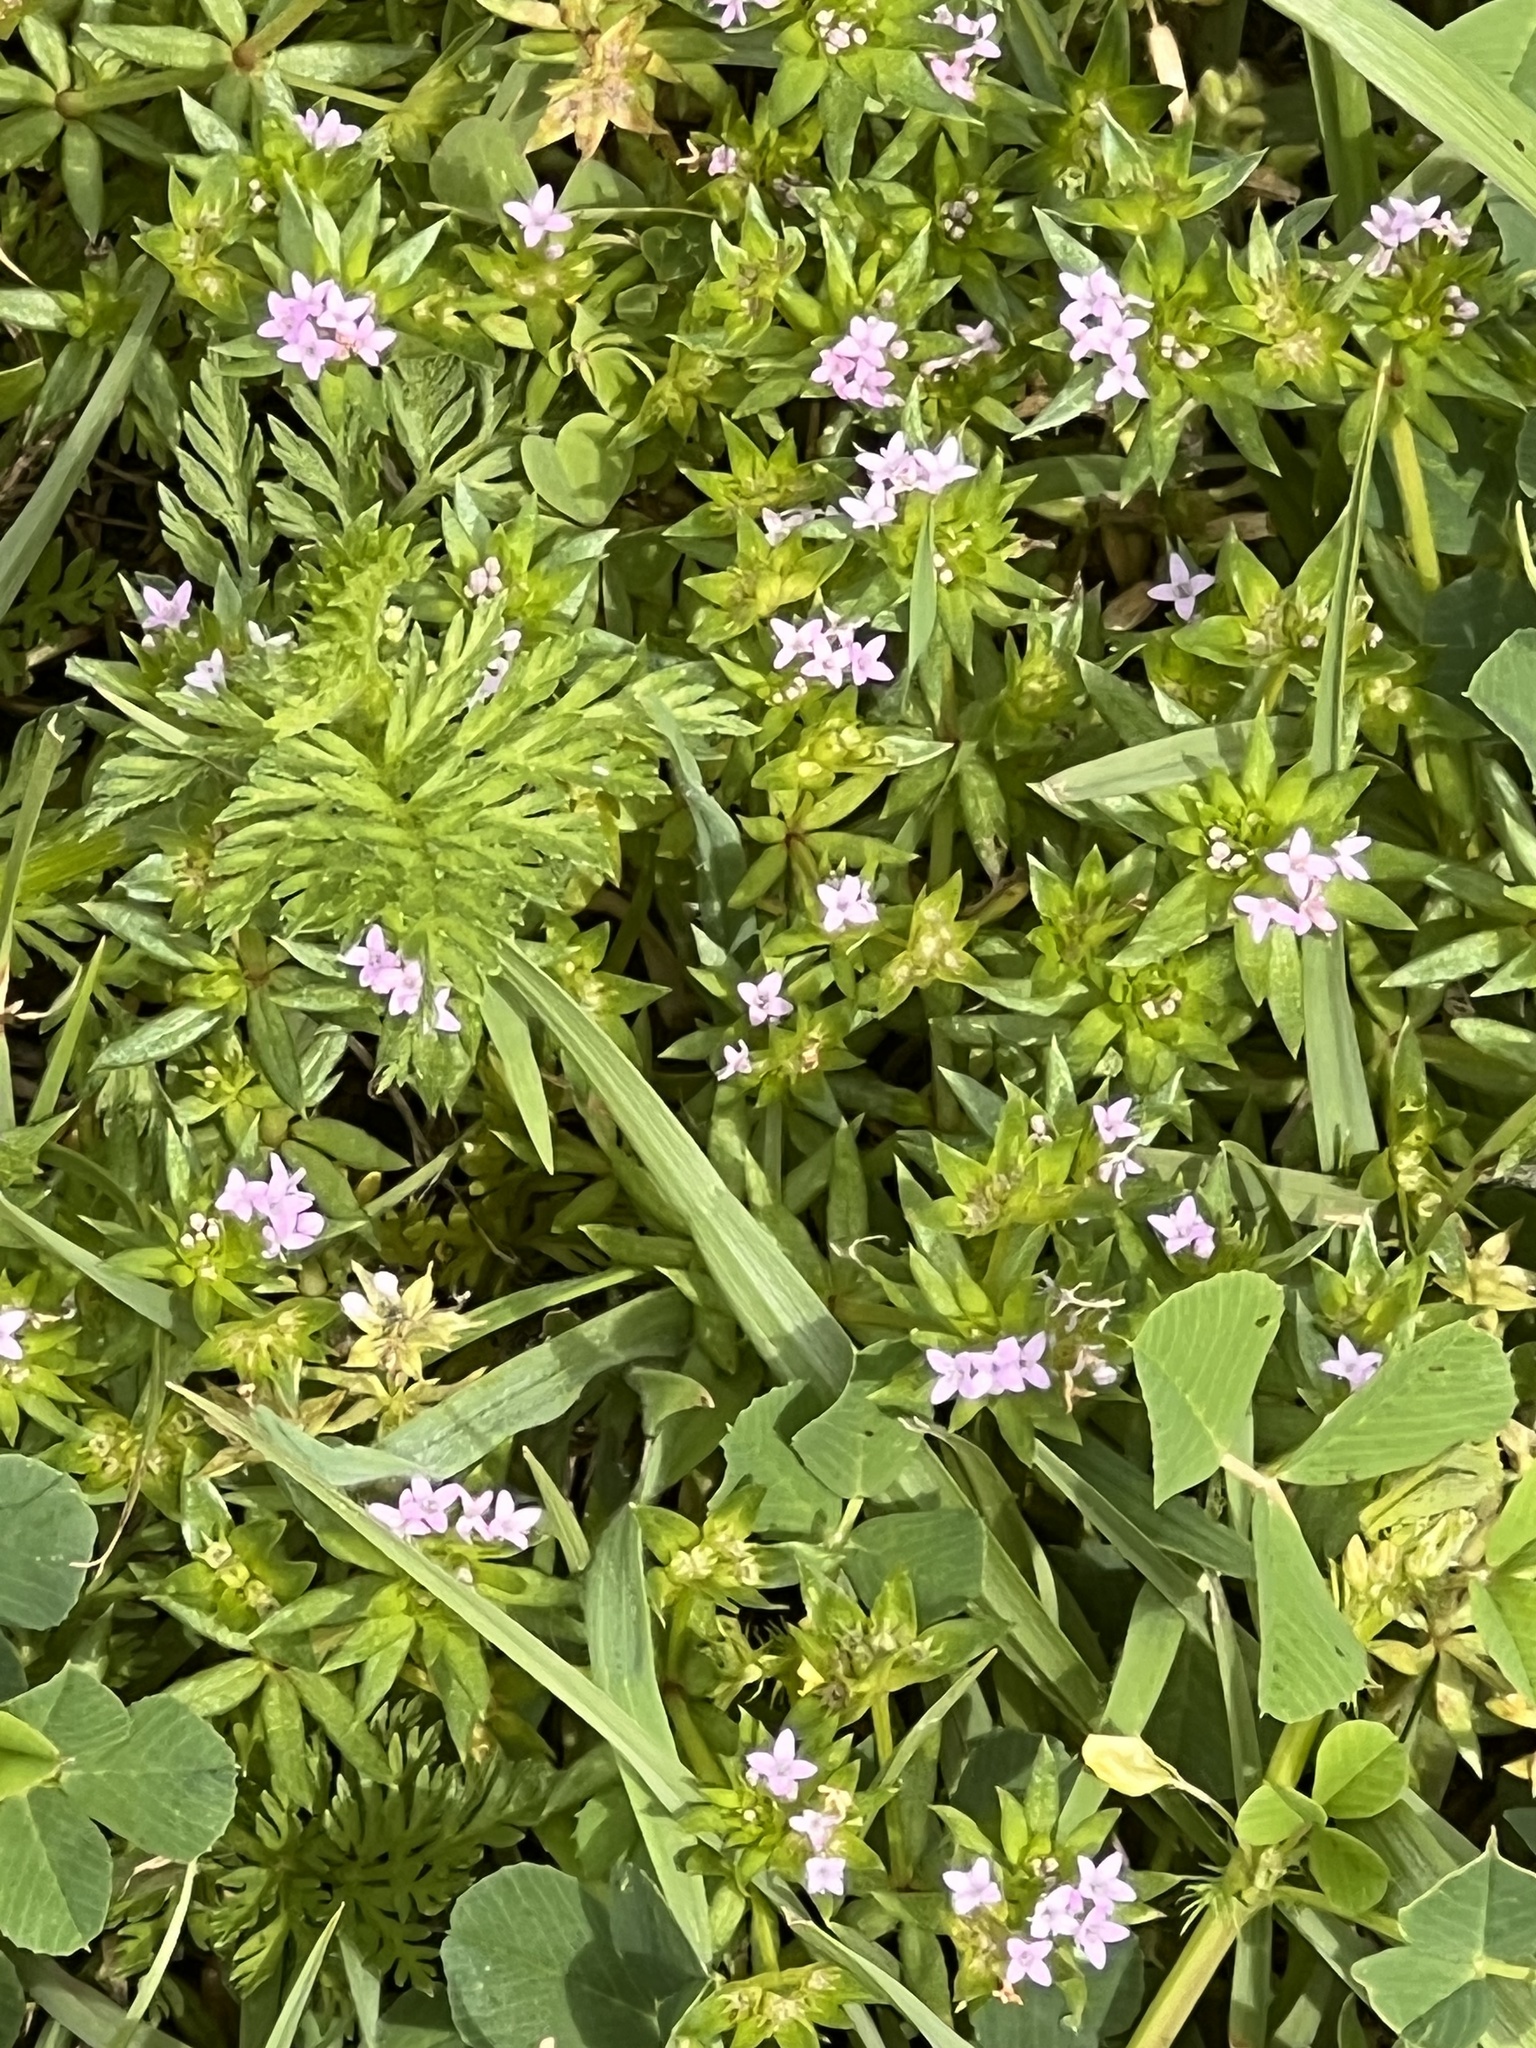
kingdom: Plantae
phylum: Tracheophyta
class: Magnoliopsida
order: Gentianales
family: Rubiaceae
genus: Sherardia
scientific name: Sherardia arvensis
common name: Field madder
